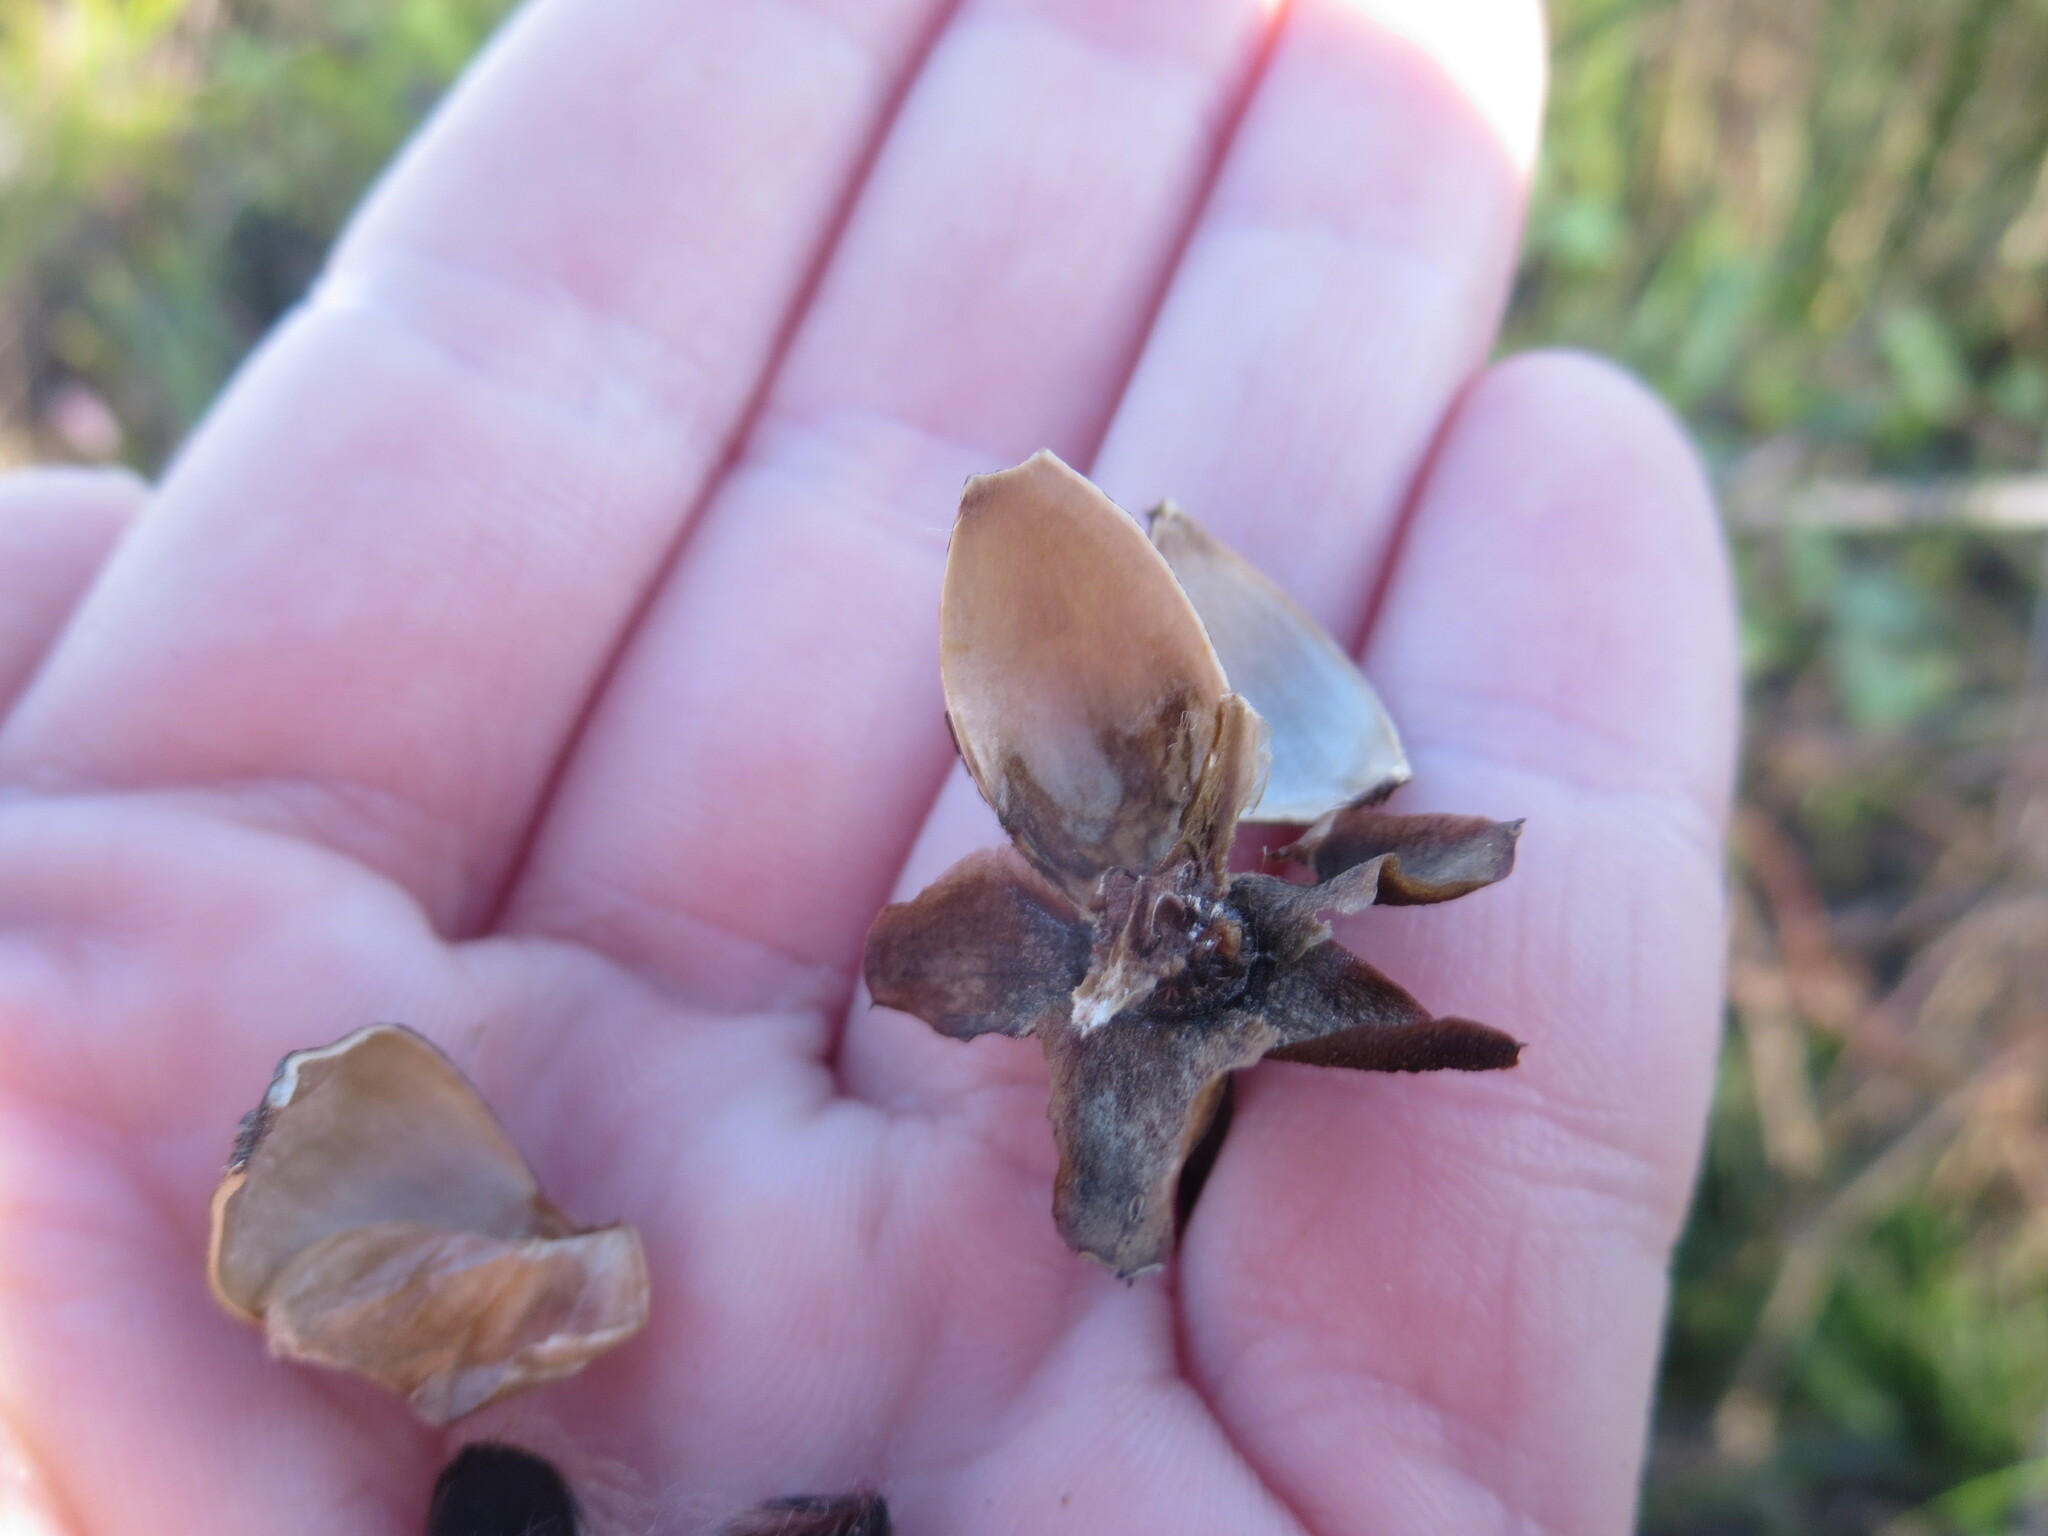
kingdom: Plantae
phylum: Tracheophyta
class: Magnoliopsida
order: Solanales
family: Convolvulaceae
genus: Ipomoea
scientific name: Ipomoea sagittata
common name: Saltmarsh morning glory
